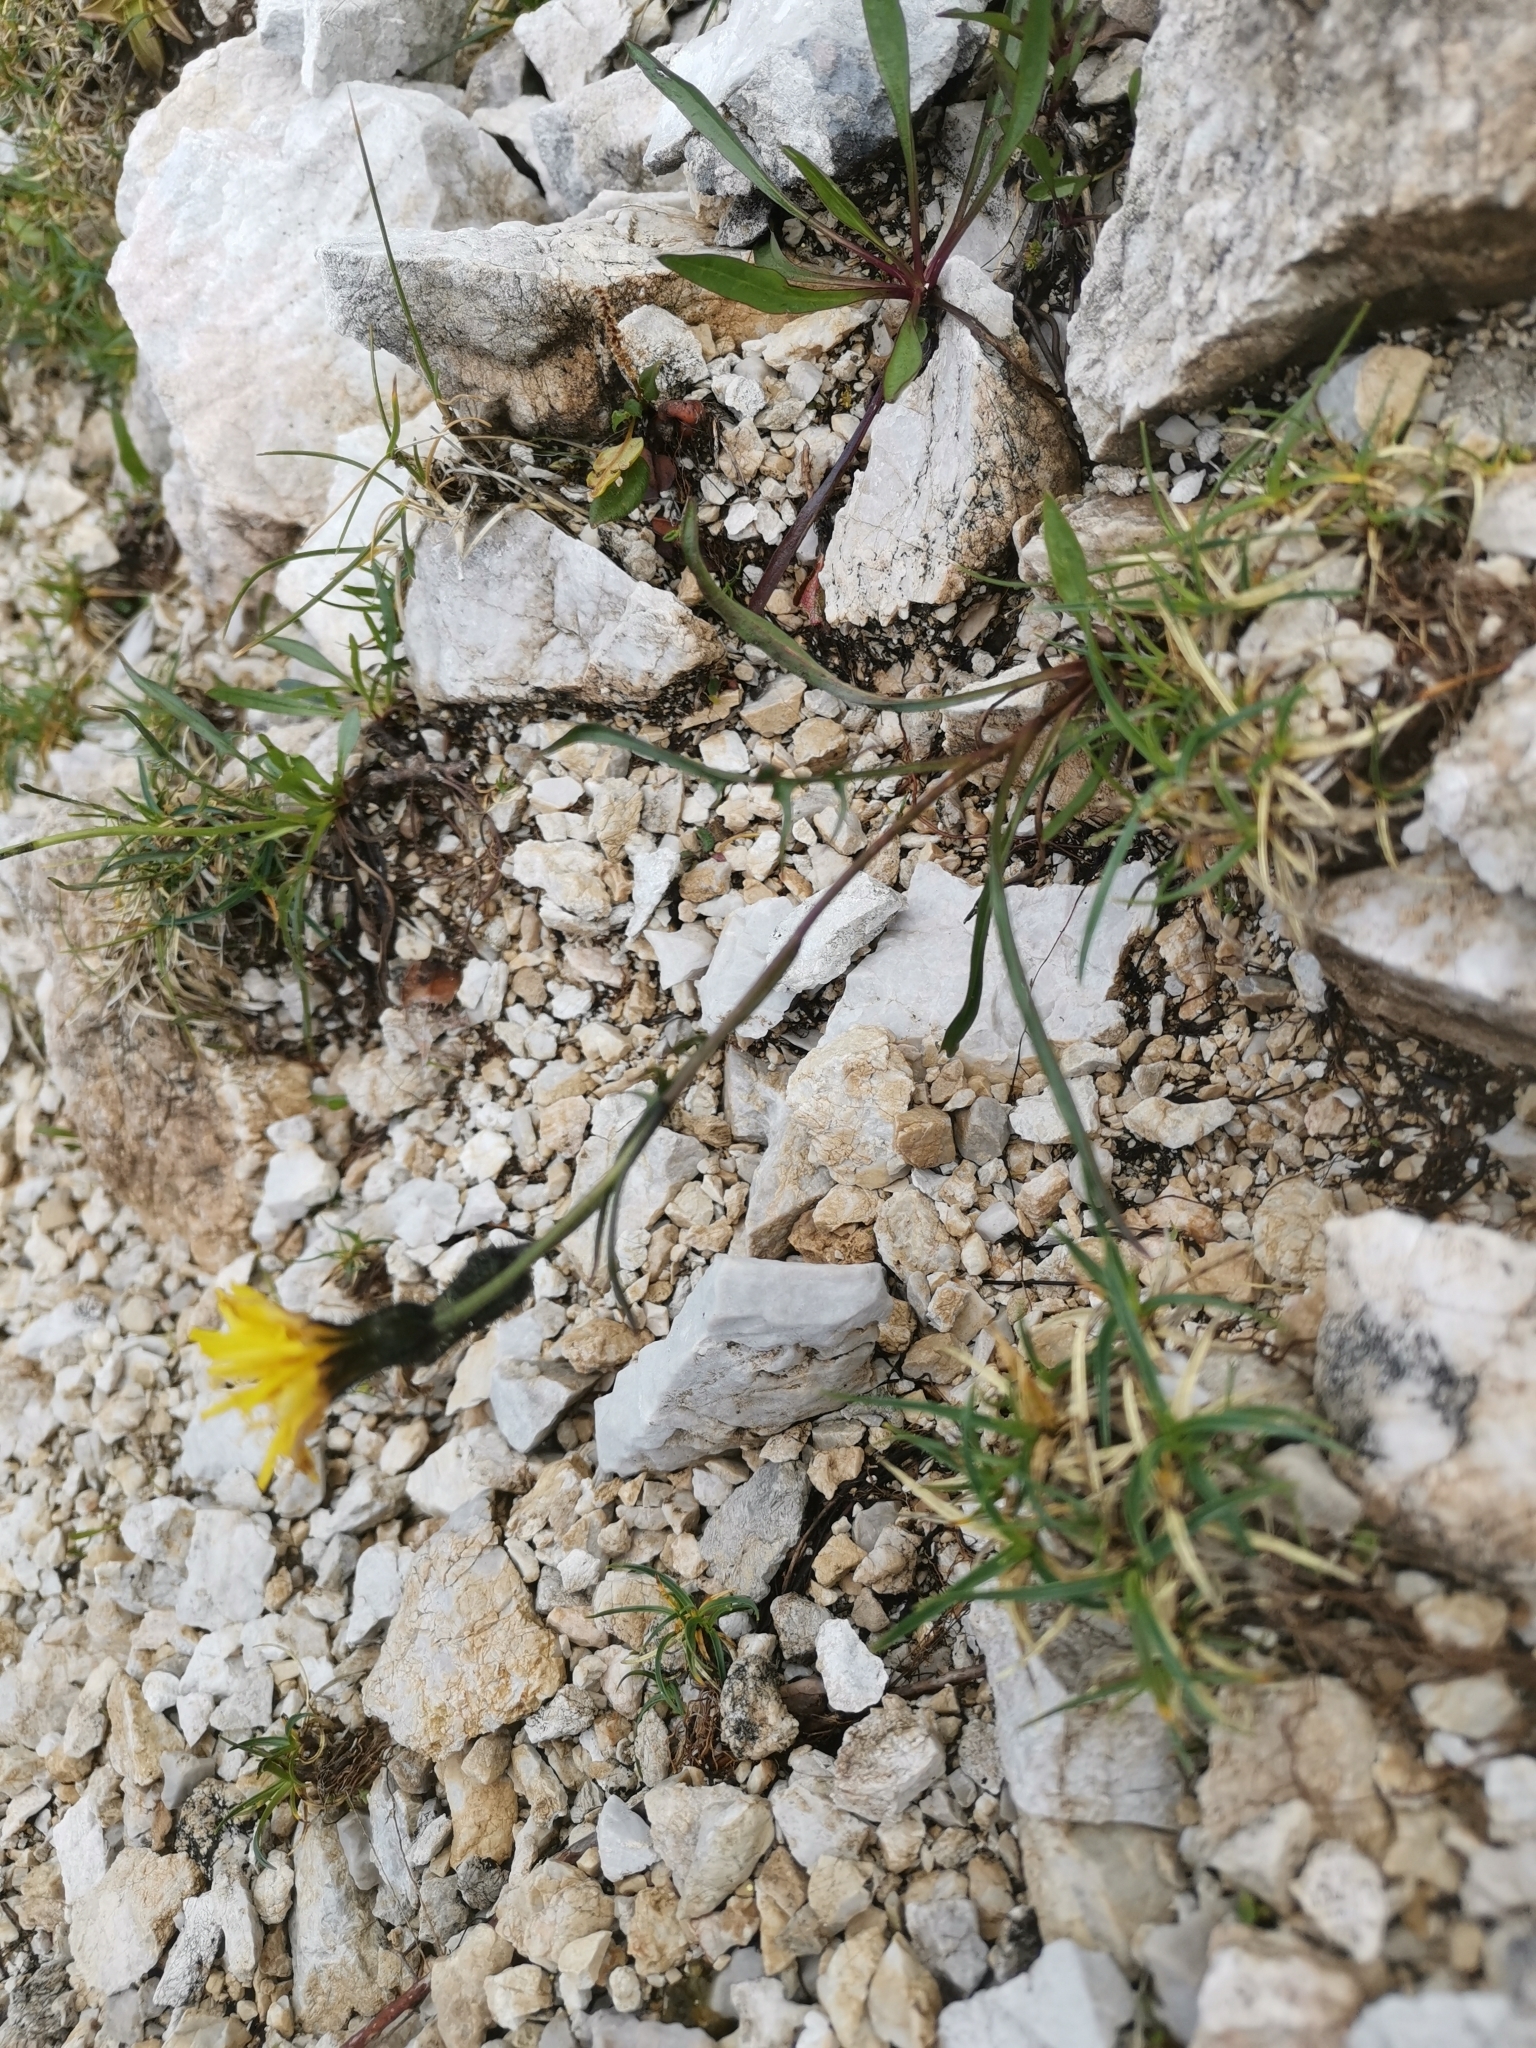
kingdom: Plantae
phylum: Tracheophyta
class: Magnoliopsida
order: Asterales
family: Asteraceae
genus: Crepis
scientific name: Crepis jacquinii
